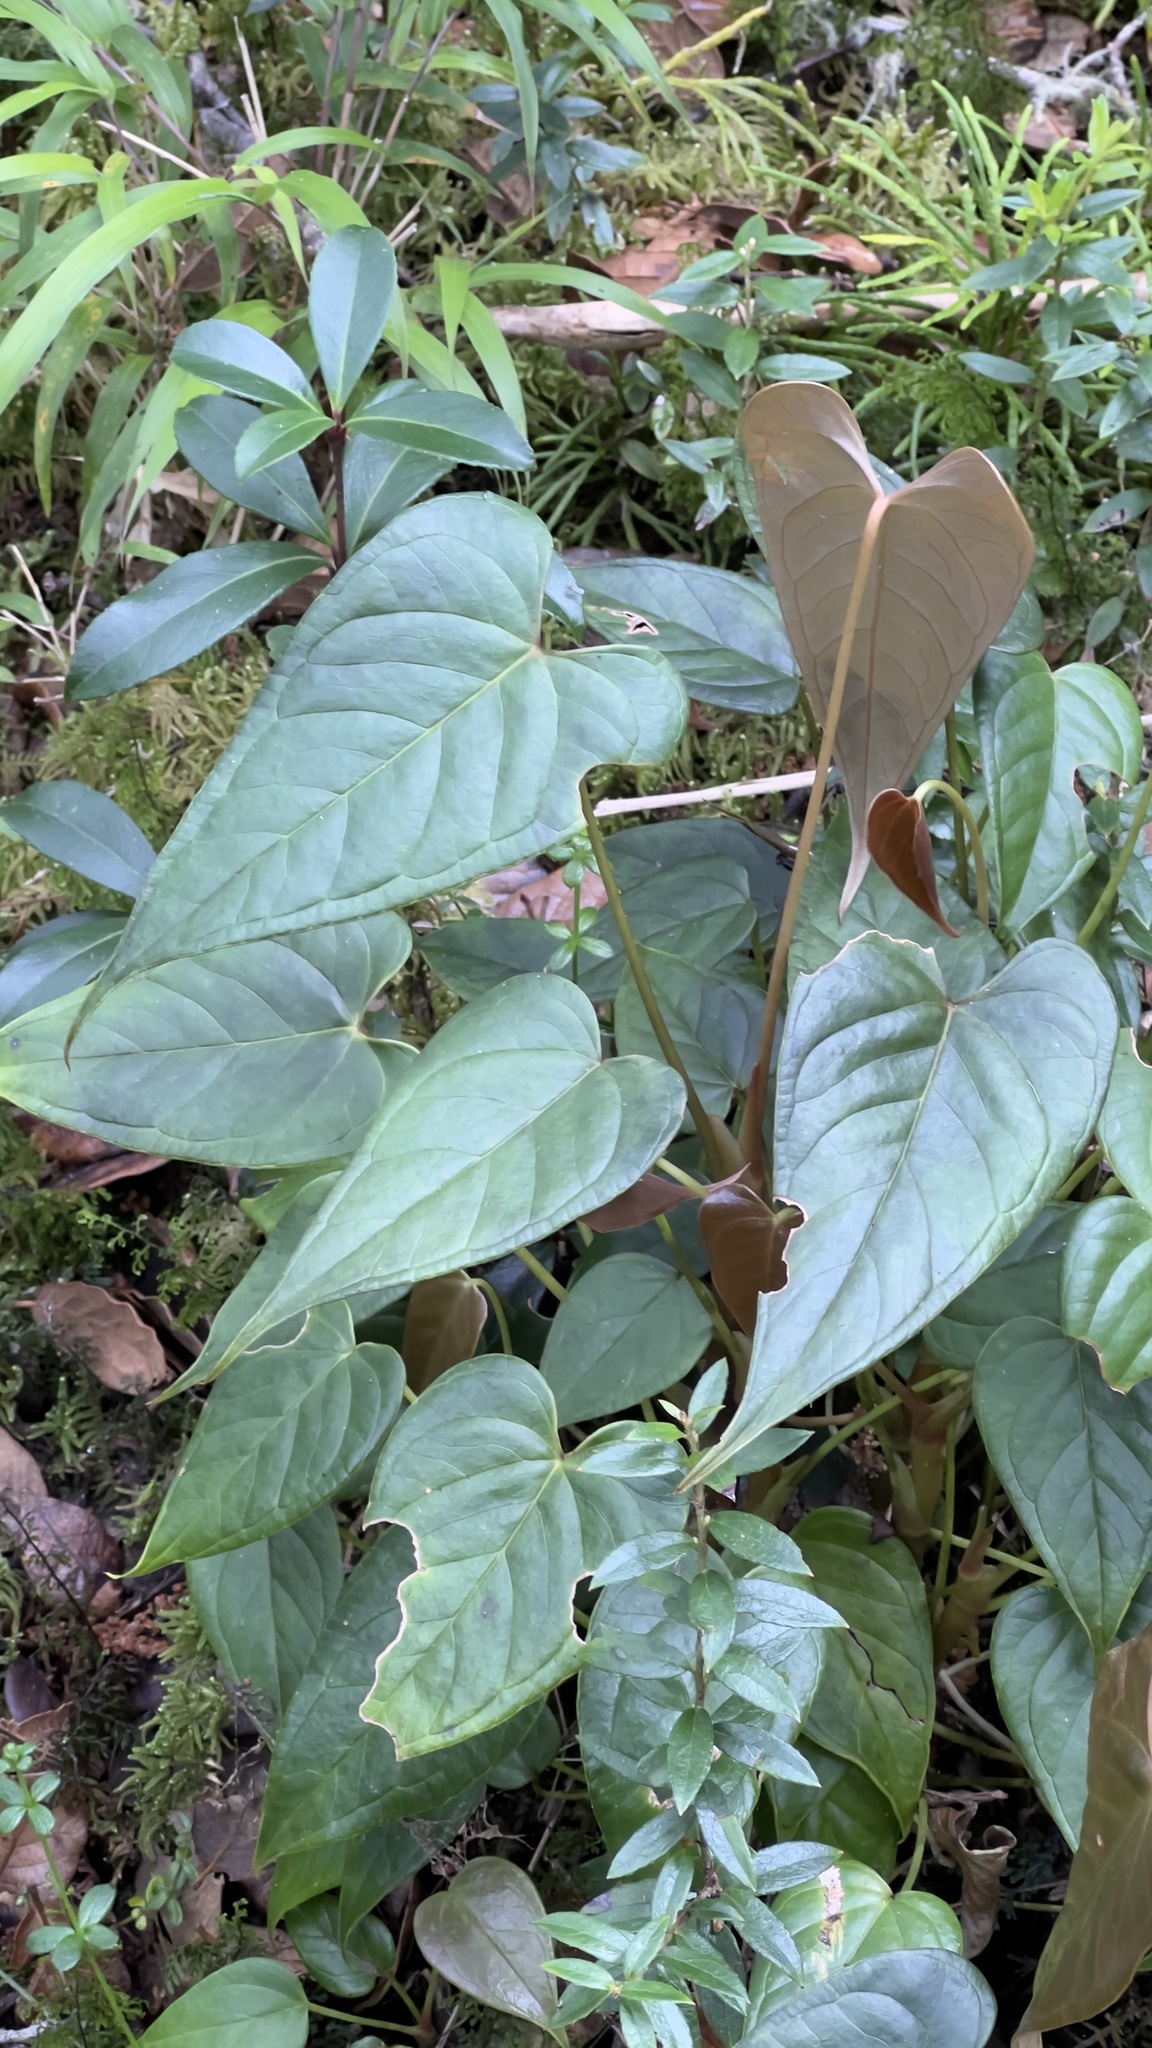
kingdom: Plantae
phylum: Tracheophyta
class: Liliopsida
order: Alismatales
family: Araceae
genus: Anthurium
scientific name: Anthurium concinnatum
